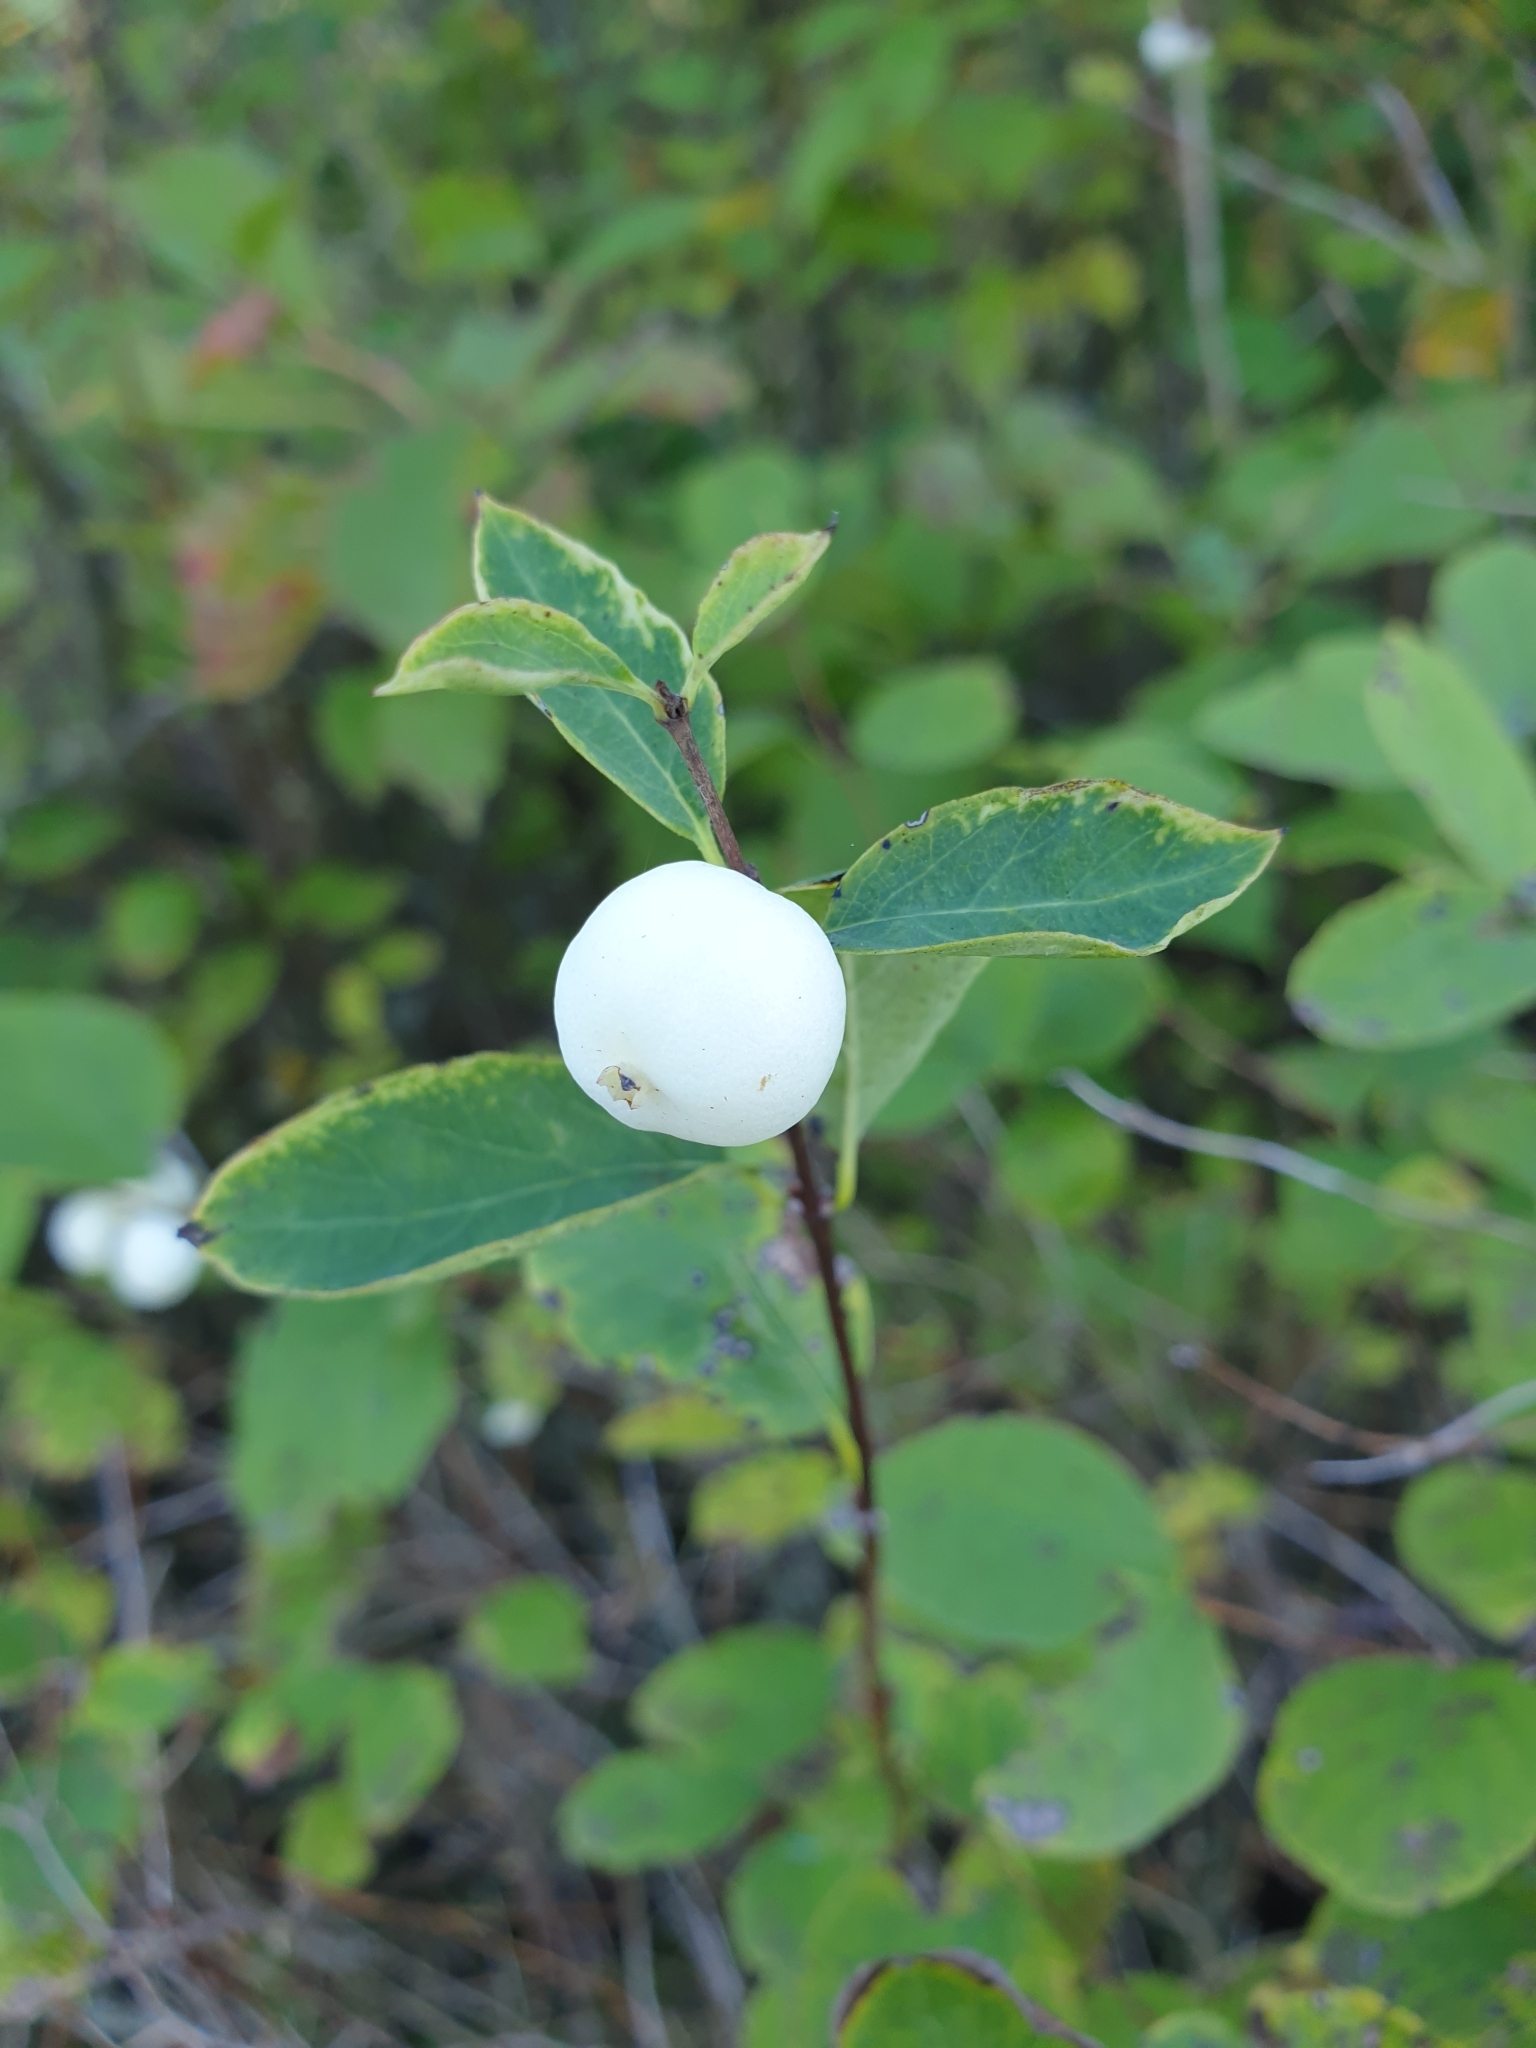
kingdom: Plantae
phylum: Tracheophyta
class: Magnoliopsida
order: Dipsacales
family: Caprifoliaceae
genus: Symphoricarpos
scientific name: Symphoricarpos albus
